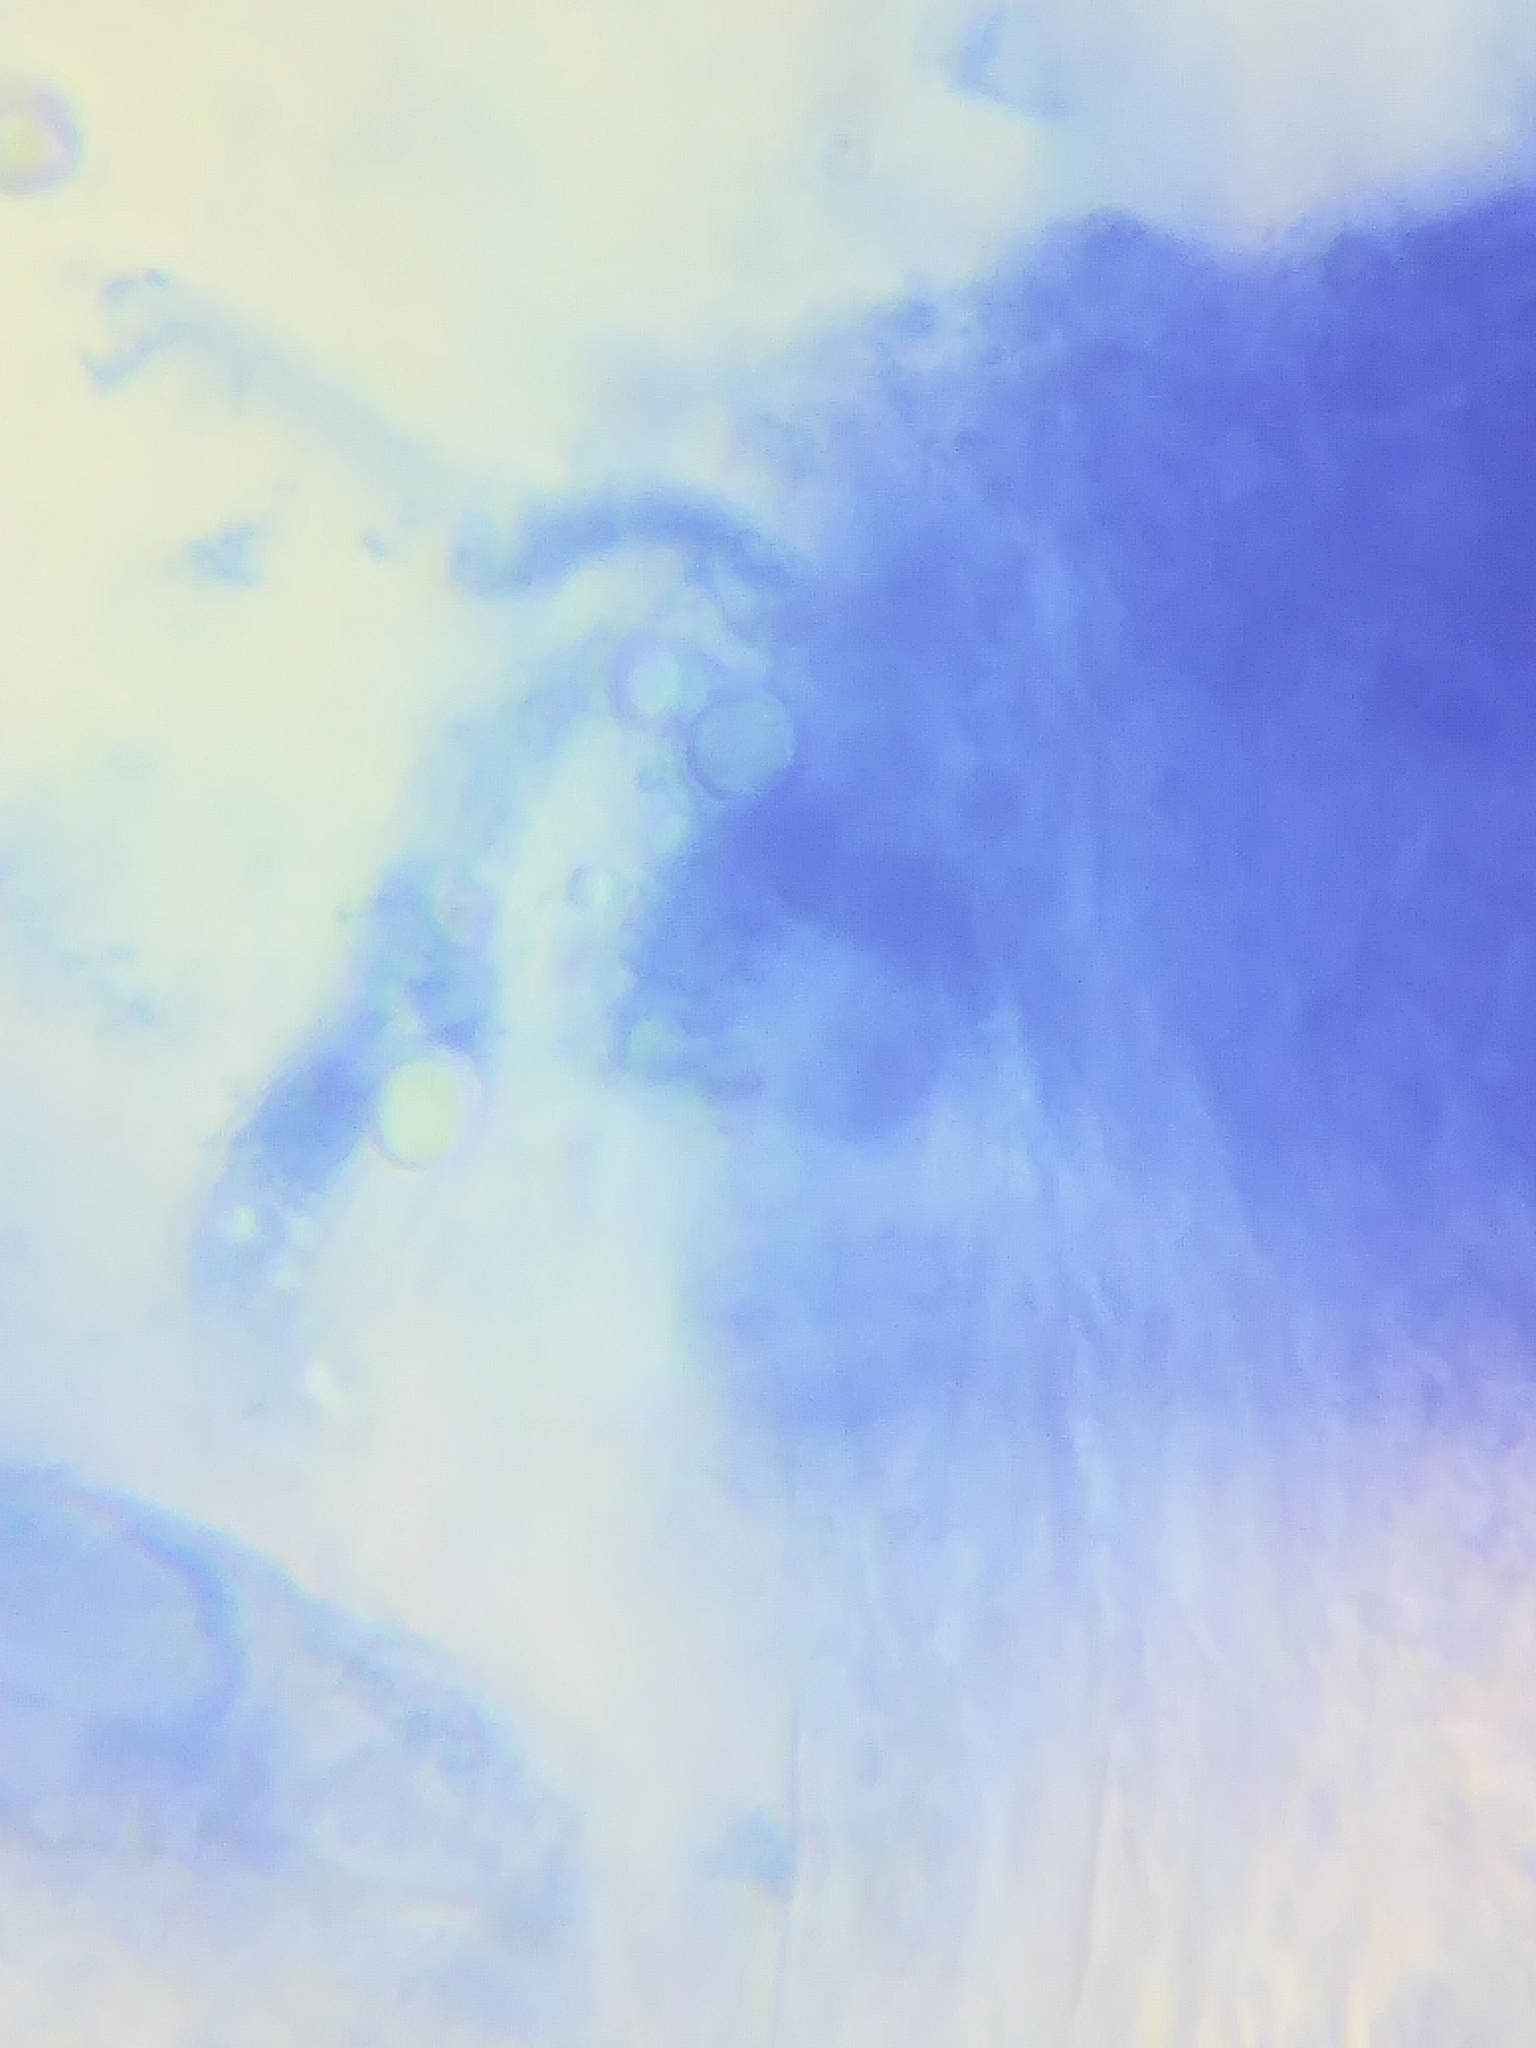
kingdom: Fungi
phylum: Basidiomycota
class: Agaricomycetes
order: Agaricales
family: Mycenaceae
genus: Atheniella
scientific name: Atheniella adonis
